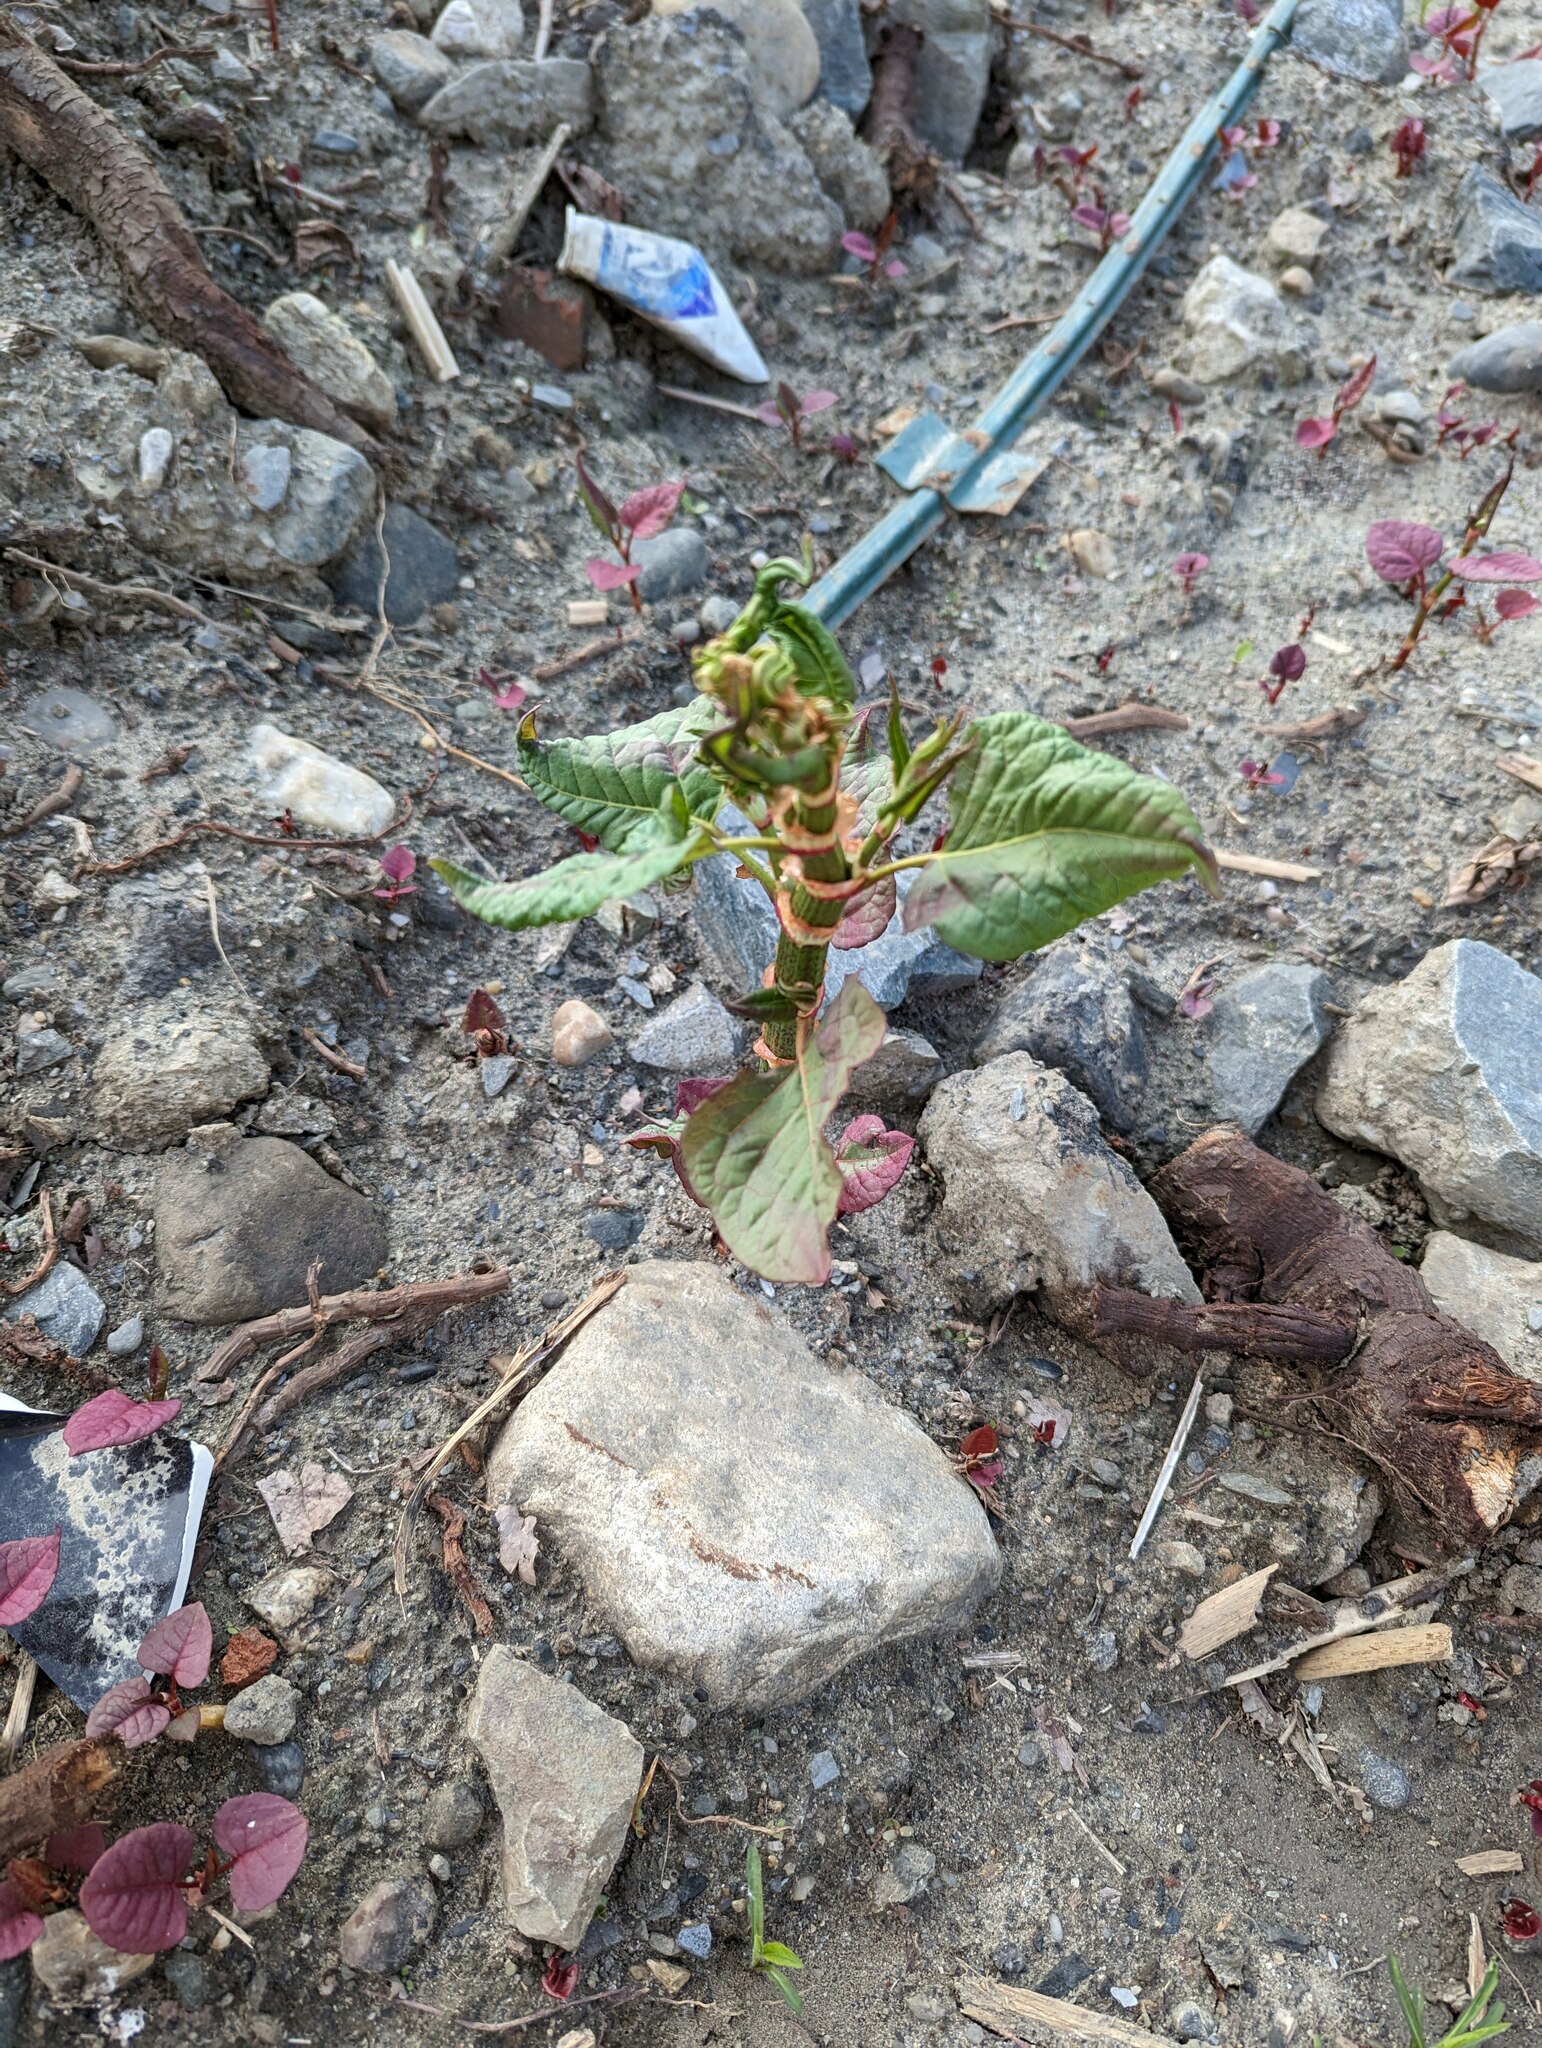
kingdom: Plantae
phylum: Tracheophyta
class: Magnoliopsida
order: Caryophyllales
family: Polygonaceae
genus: Reynoutria
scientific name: Reynoutria japonica
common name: Japanese knotweed
